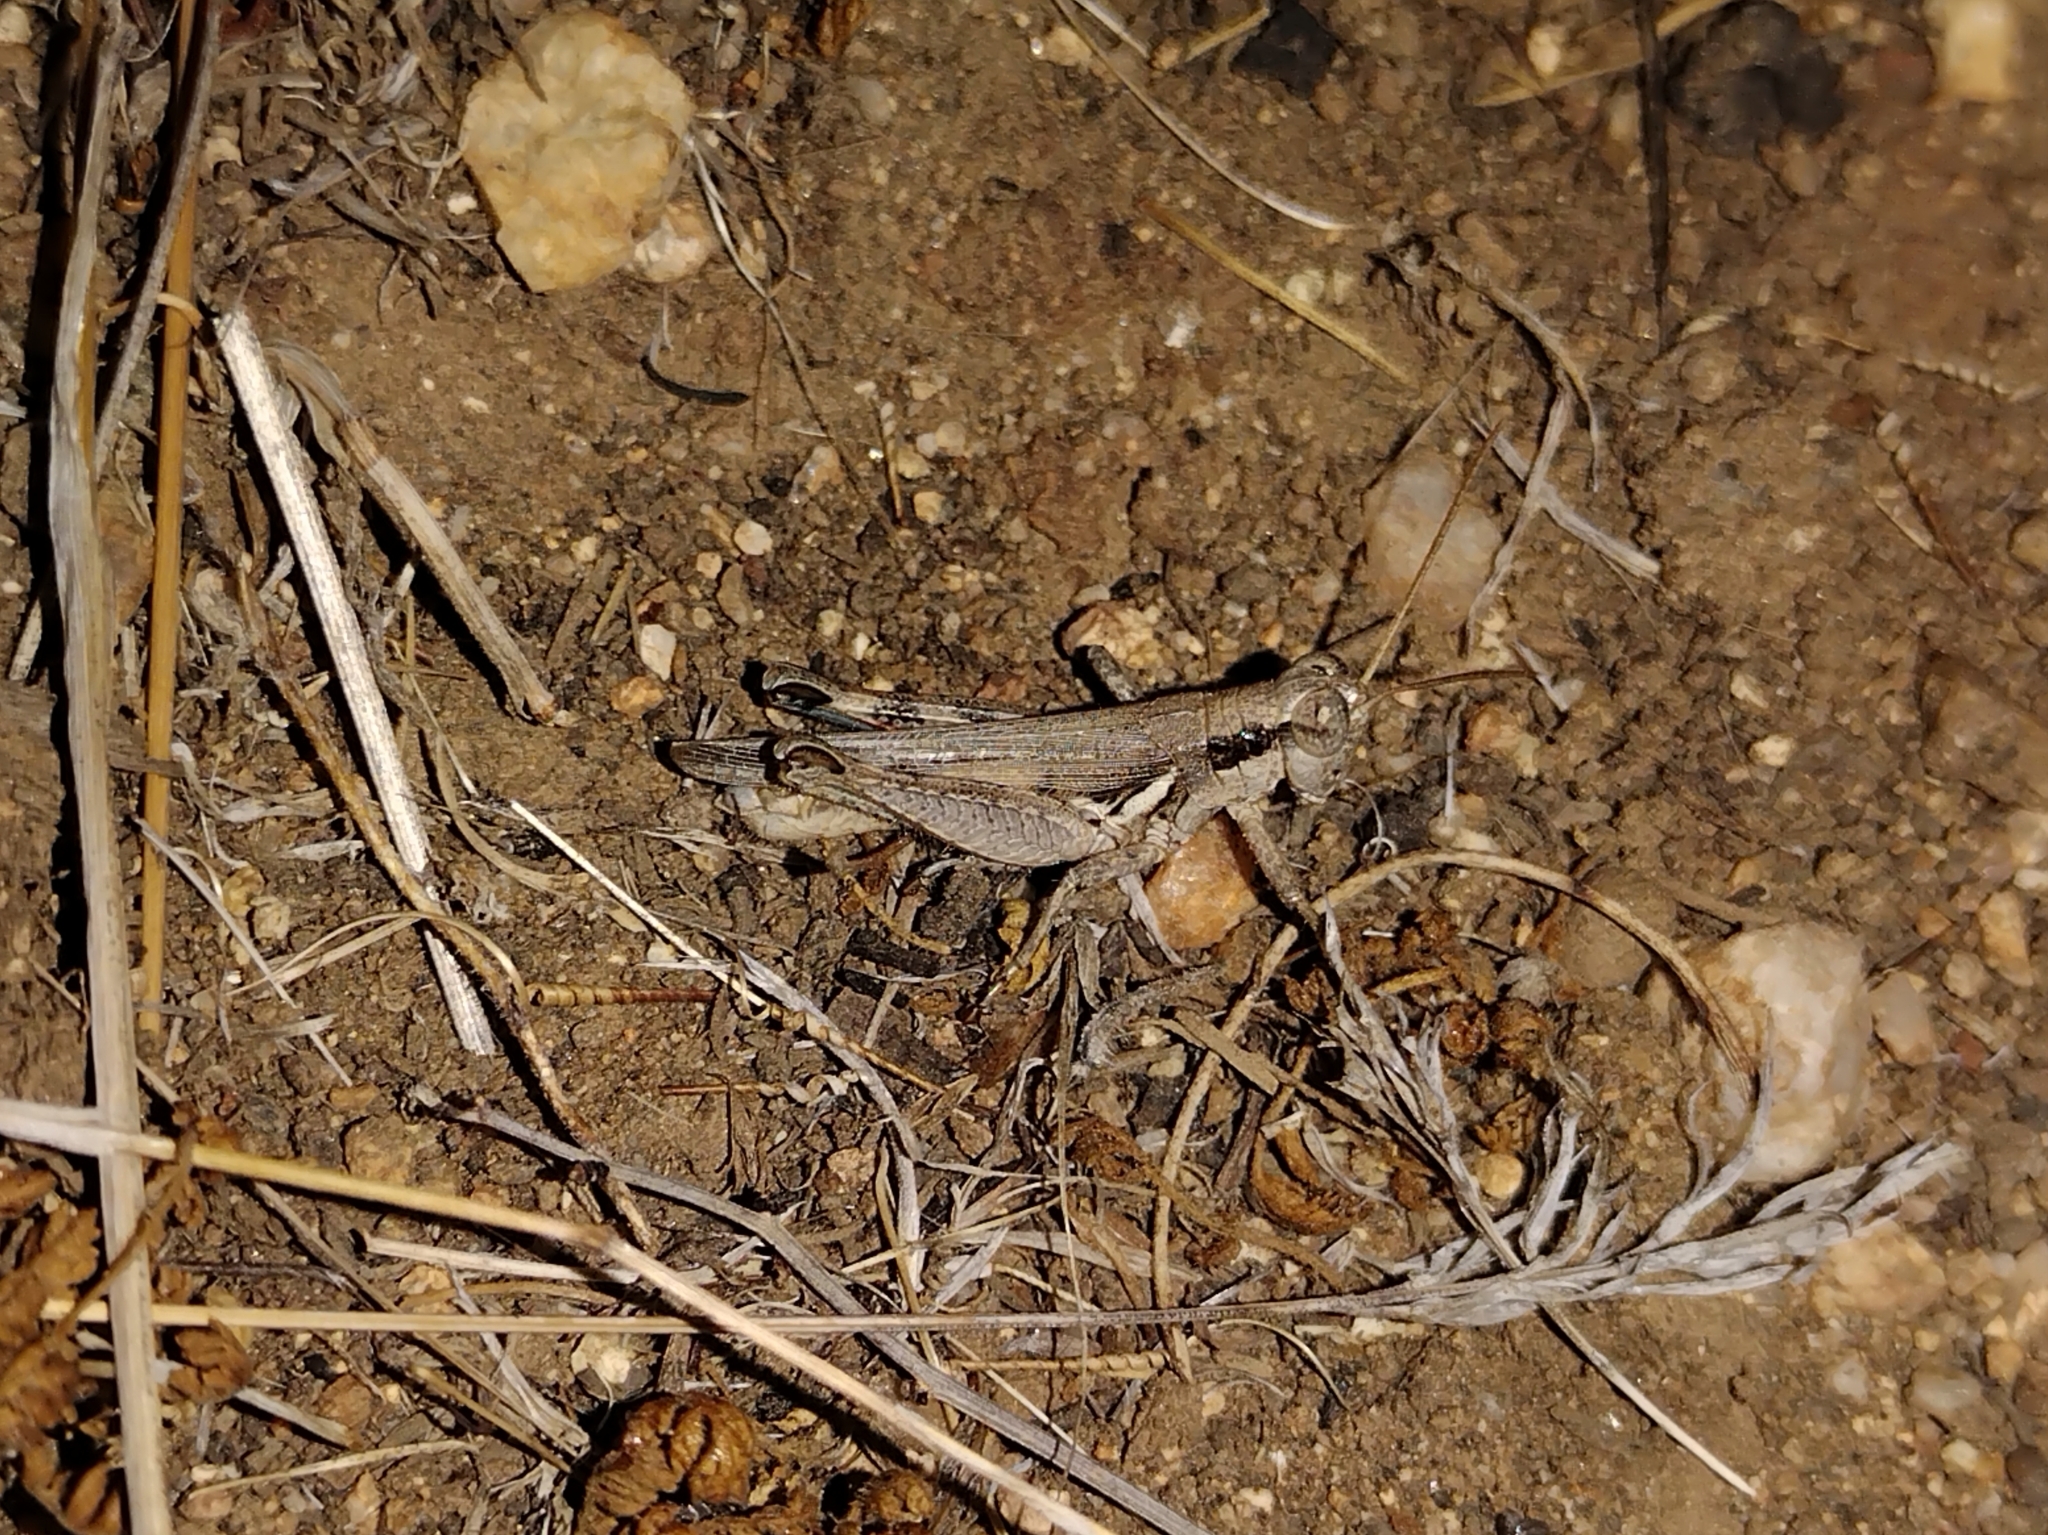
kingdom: Animalia
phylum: Arthropoda
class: Insecta
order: Orthoptera
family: Acrididae
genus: Melanoplus
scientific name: Melanoplus cinereus
